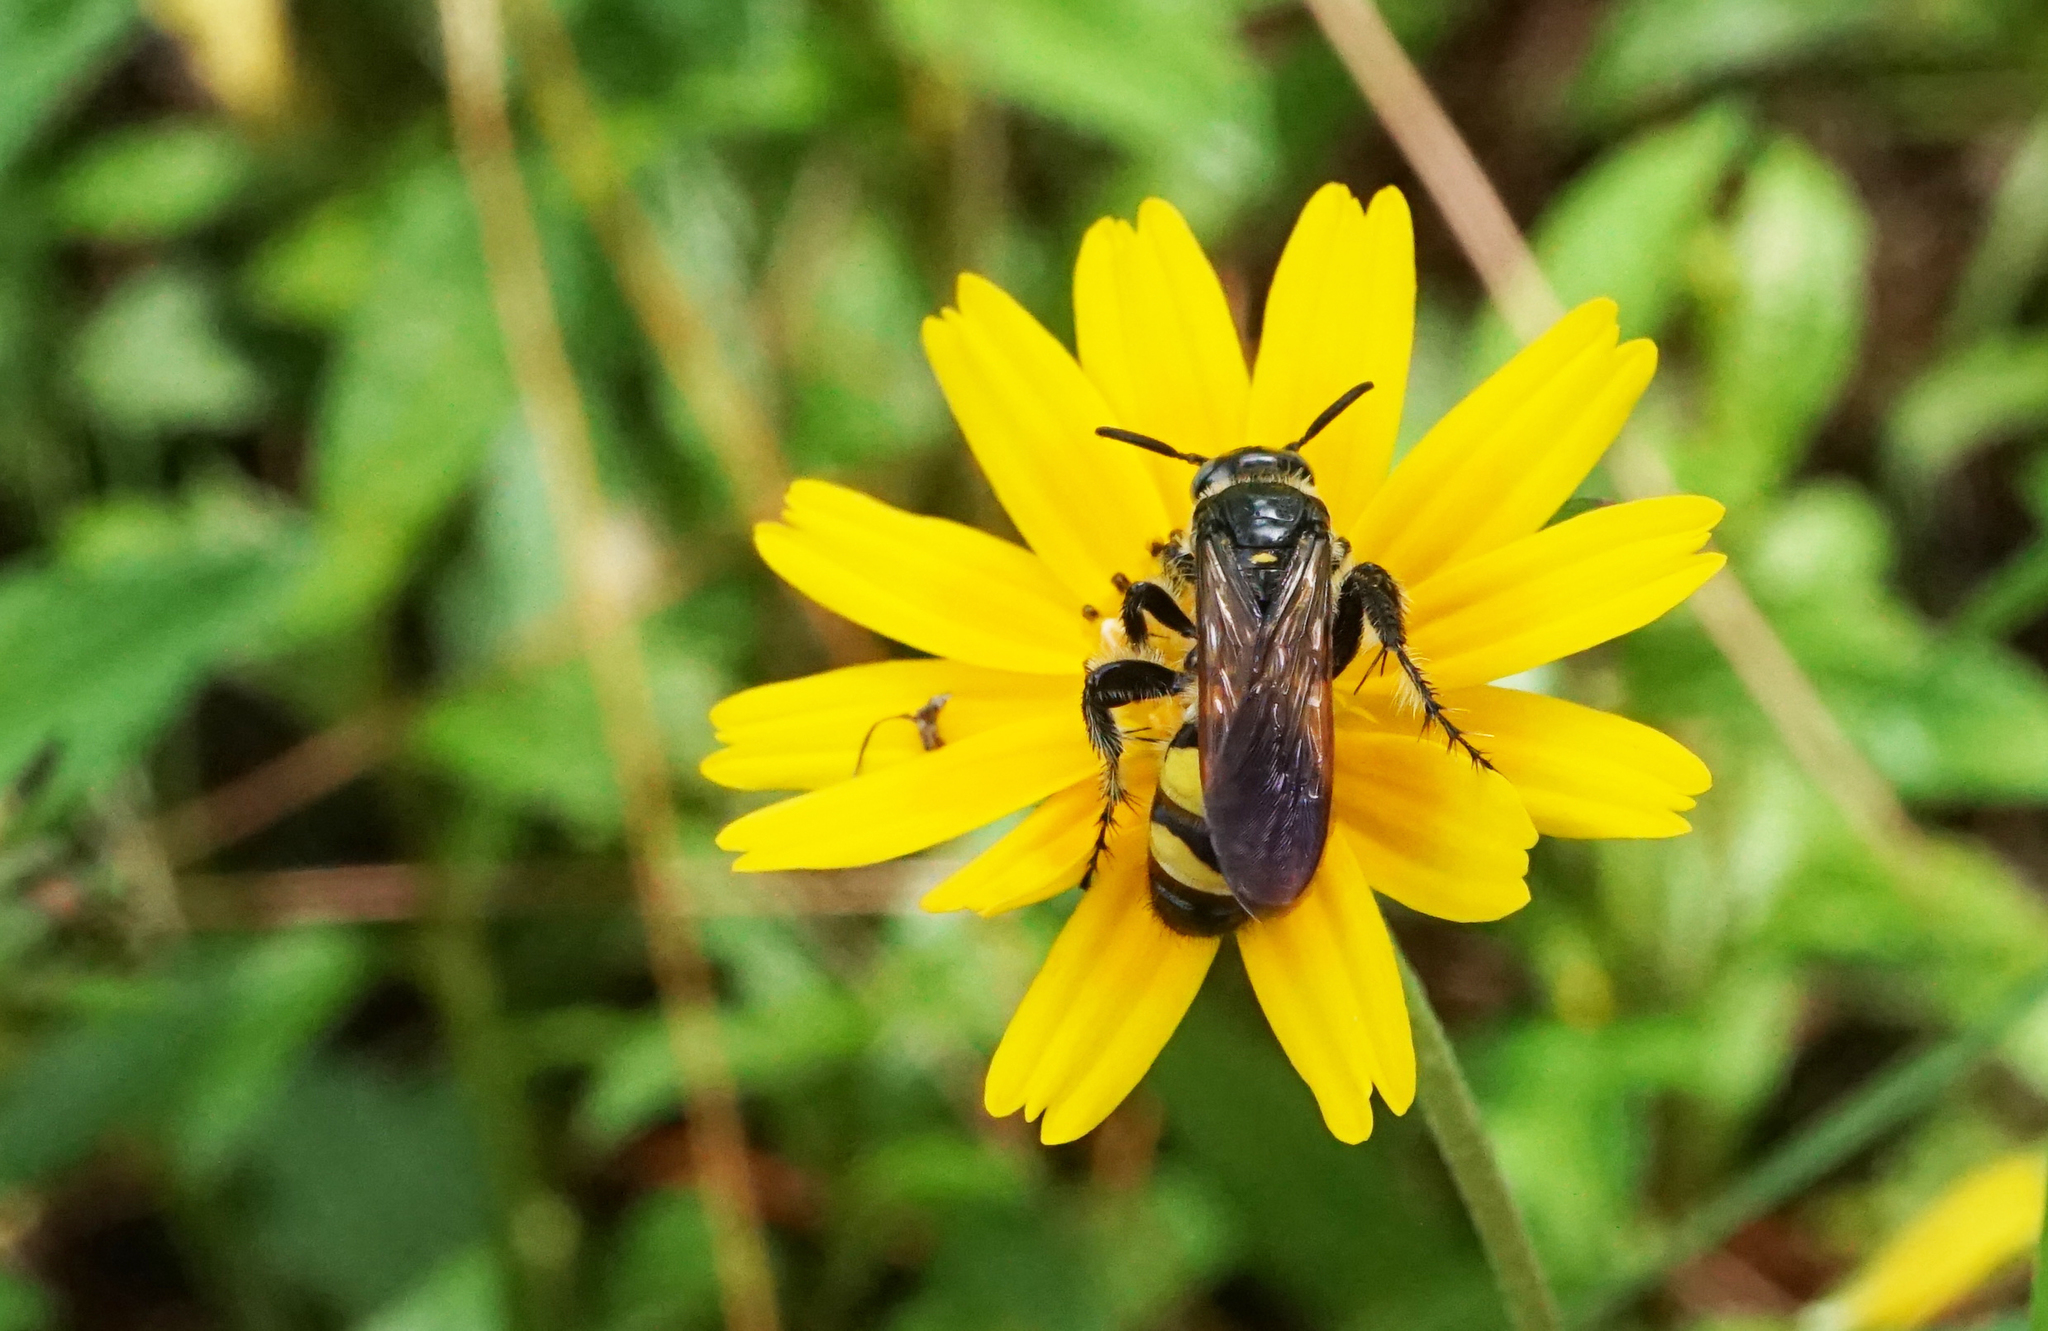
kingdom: Animalia
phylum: Arthropoda
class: Insecta
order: Hymenoptera
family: Scoliidae
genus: Dielis
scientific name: Dielis
